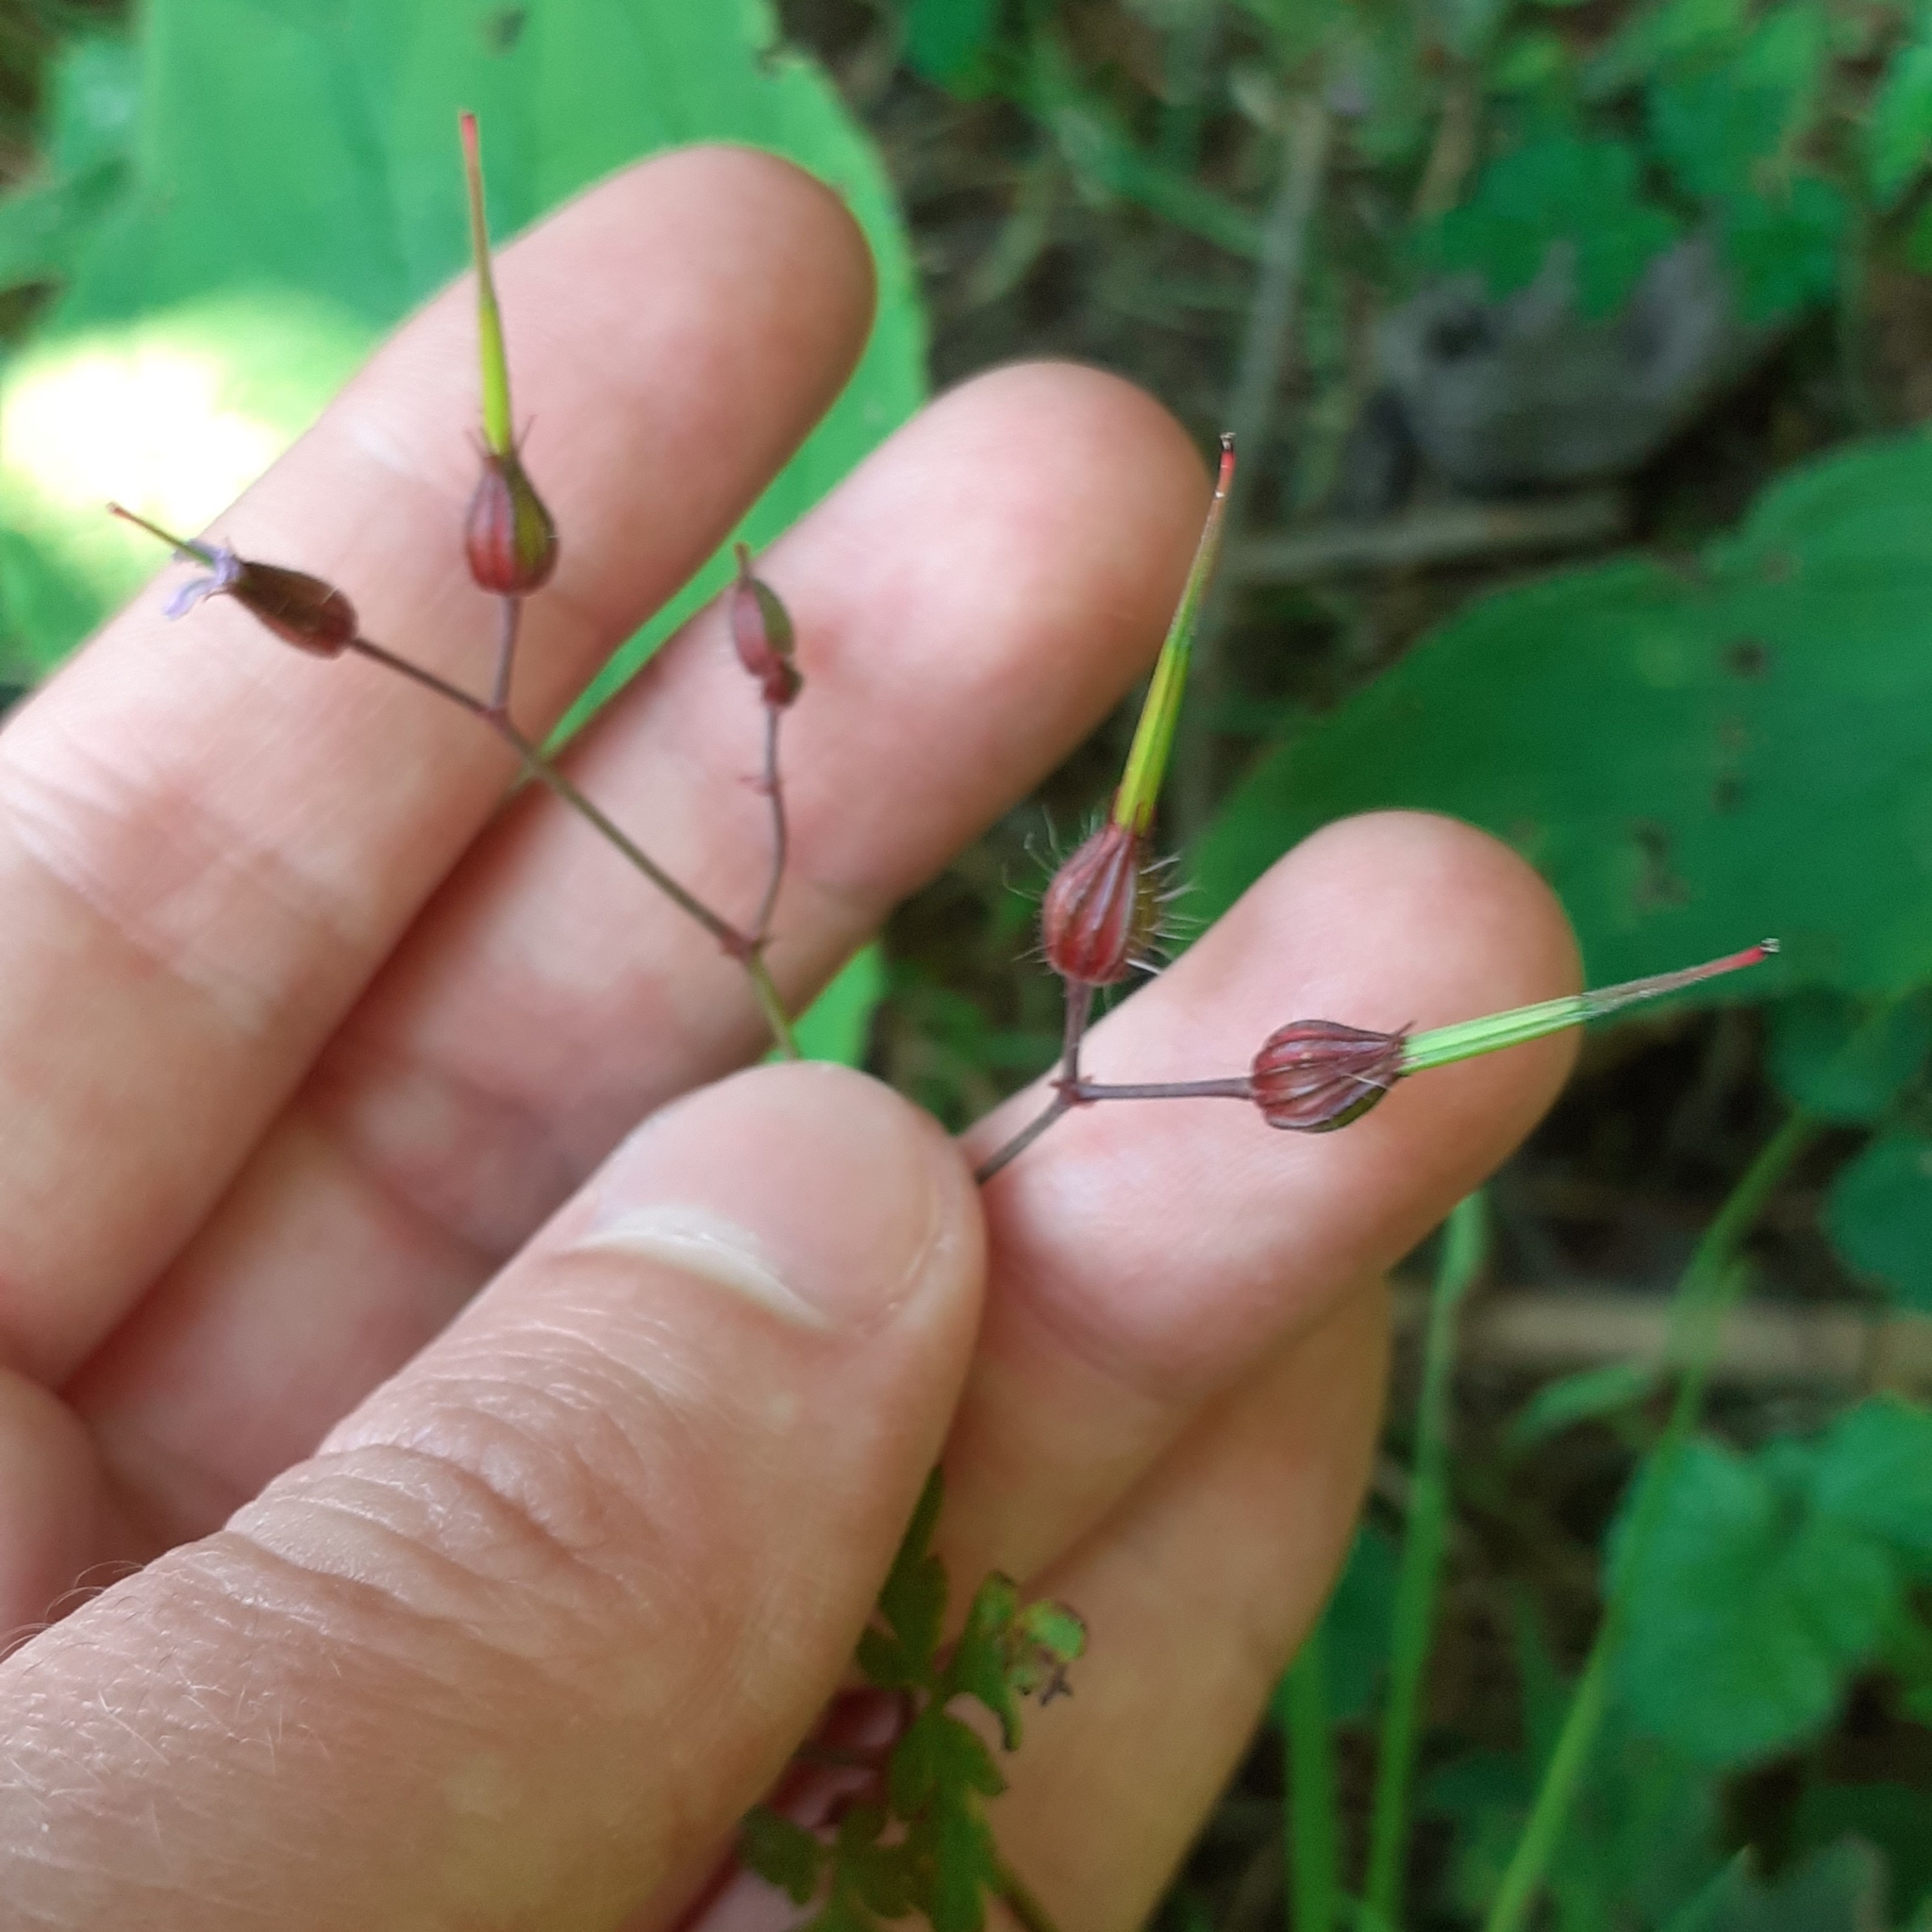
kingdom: Plantae
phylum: Tracheophyta
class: Magnoliopsida
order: Geraniales
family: Geraniaceae
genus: Geranium
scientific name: Geranium robertianum
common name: Herb-robert
